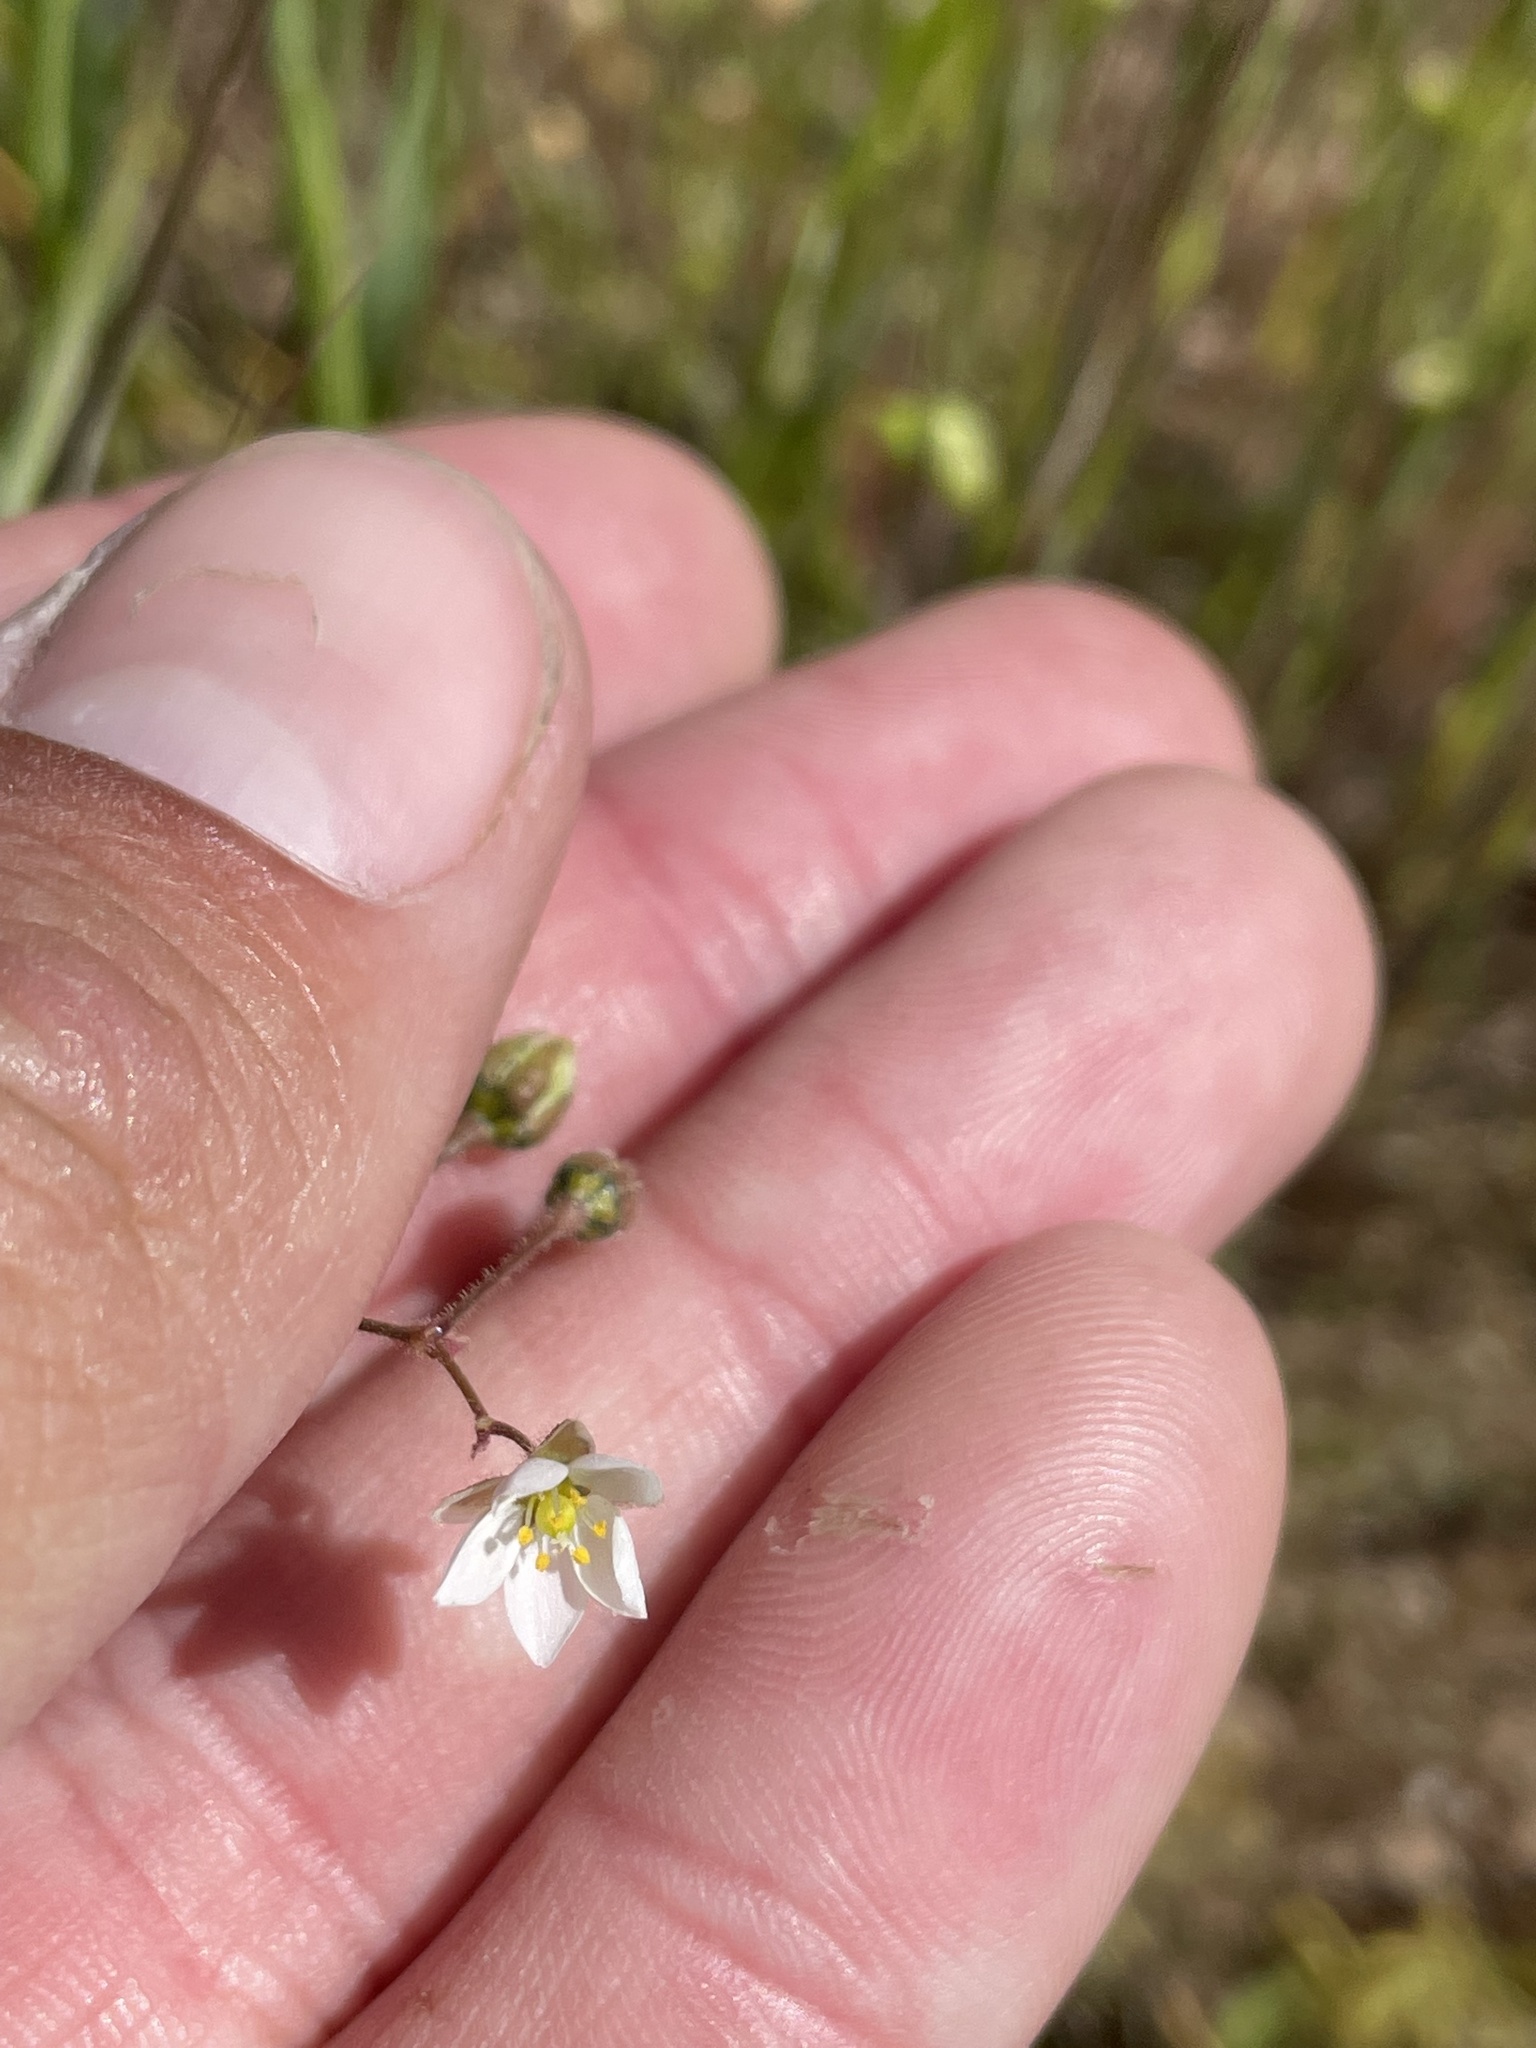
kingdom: Plantae
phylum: Tracheophyta
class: Magnoliopsida
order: Caryophyllales
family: Caryophyllaceae
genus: Spergula
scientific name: Spergula arvensis
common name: Corn spurrey
